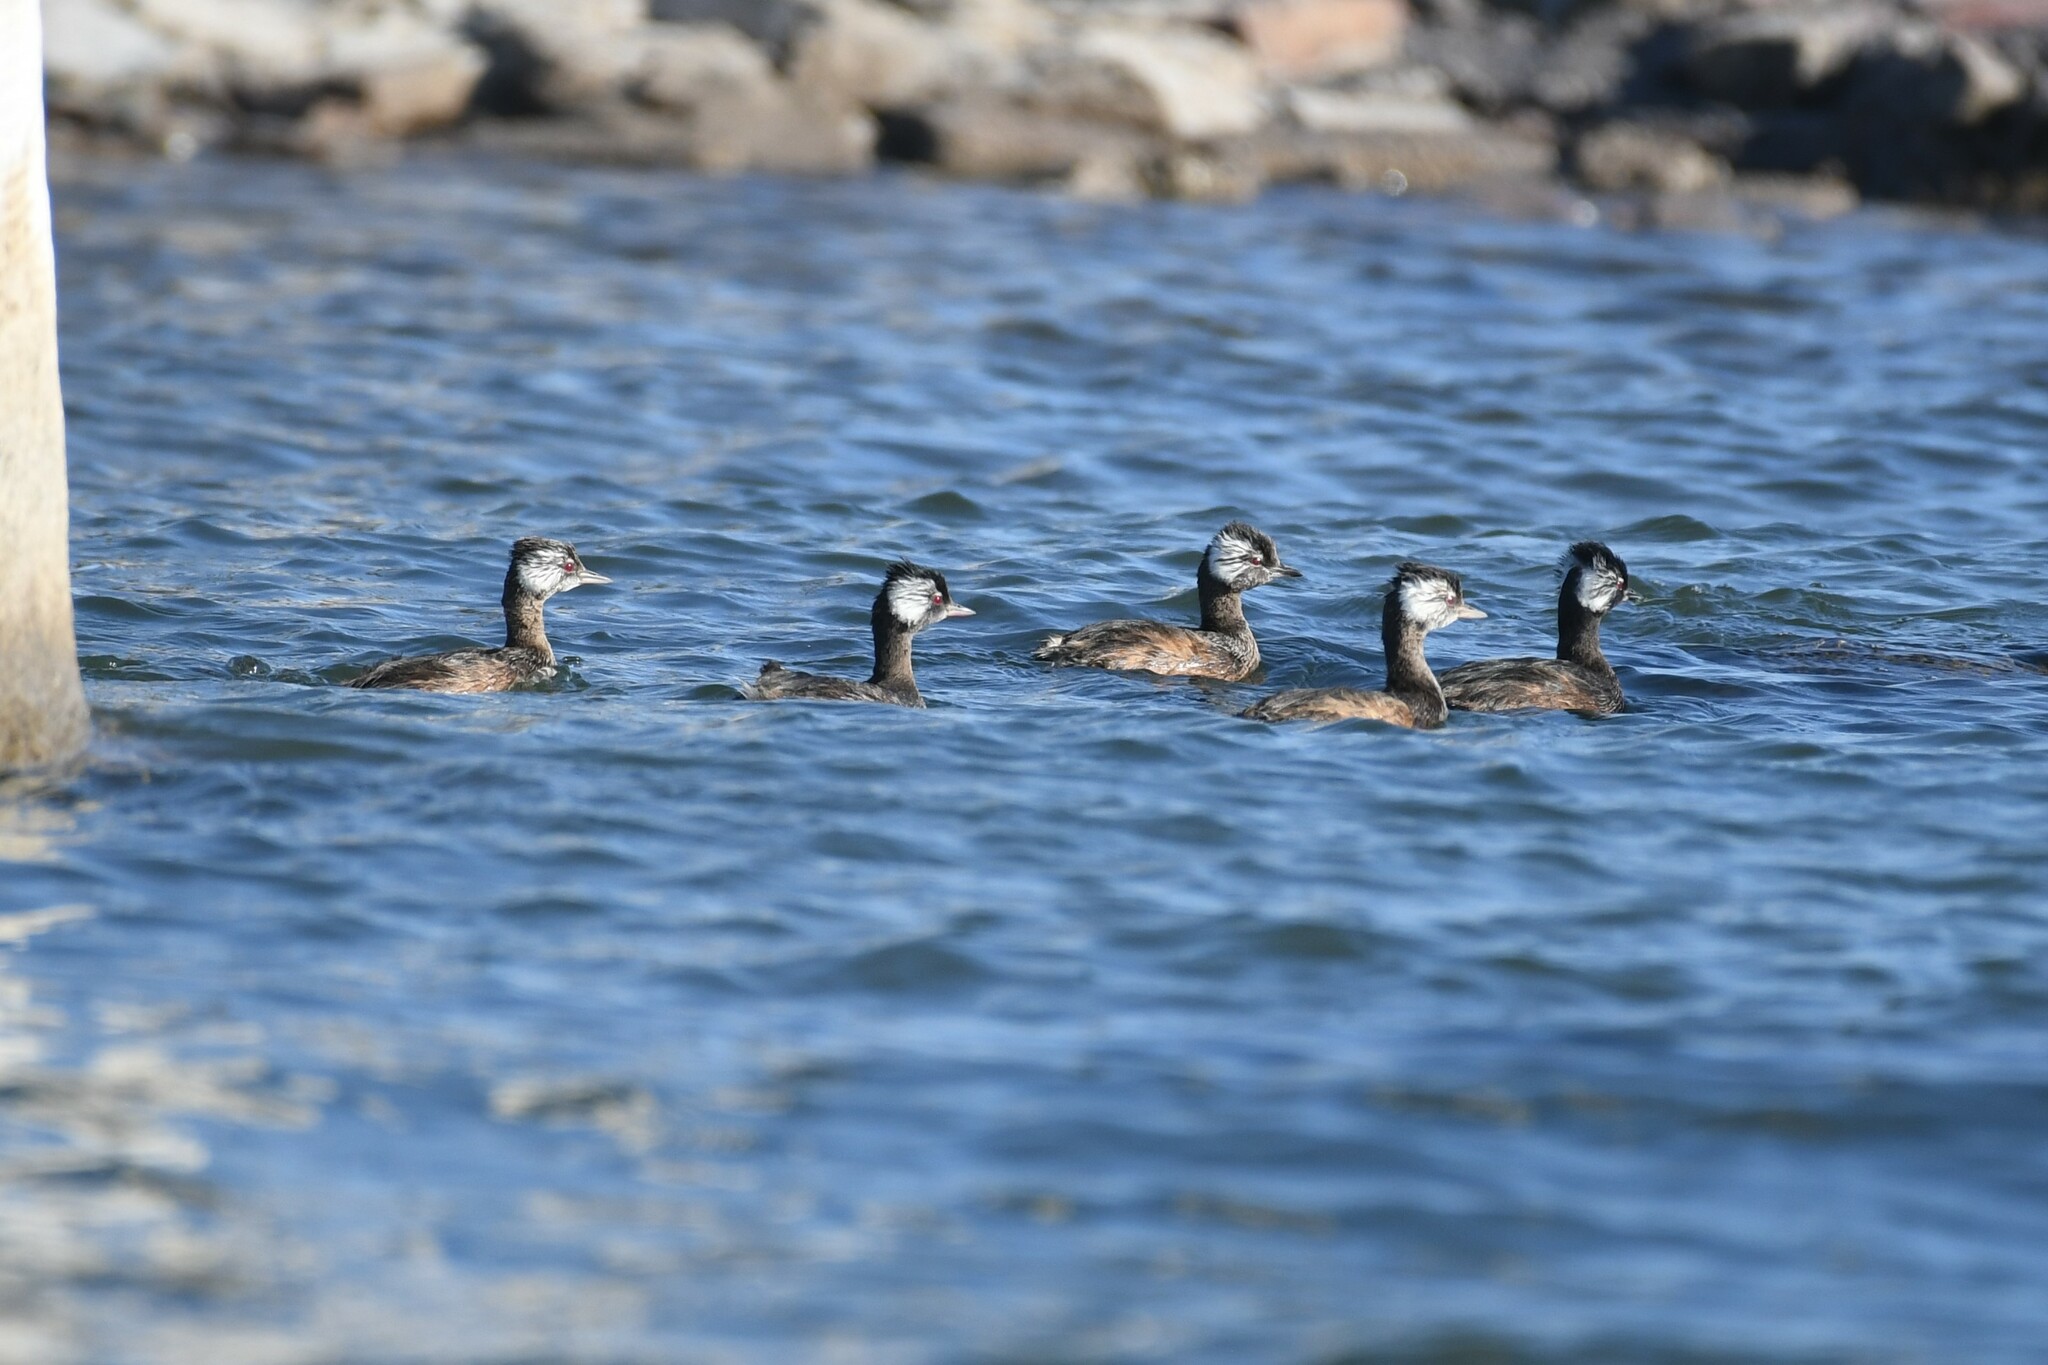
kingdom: Animalia
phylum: Chordata
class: Aves
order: Podicipediformes
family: Podicipedidae
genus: Rollandia
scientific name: Rollandia rolland
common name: White-tufted grebe
